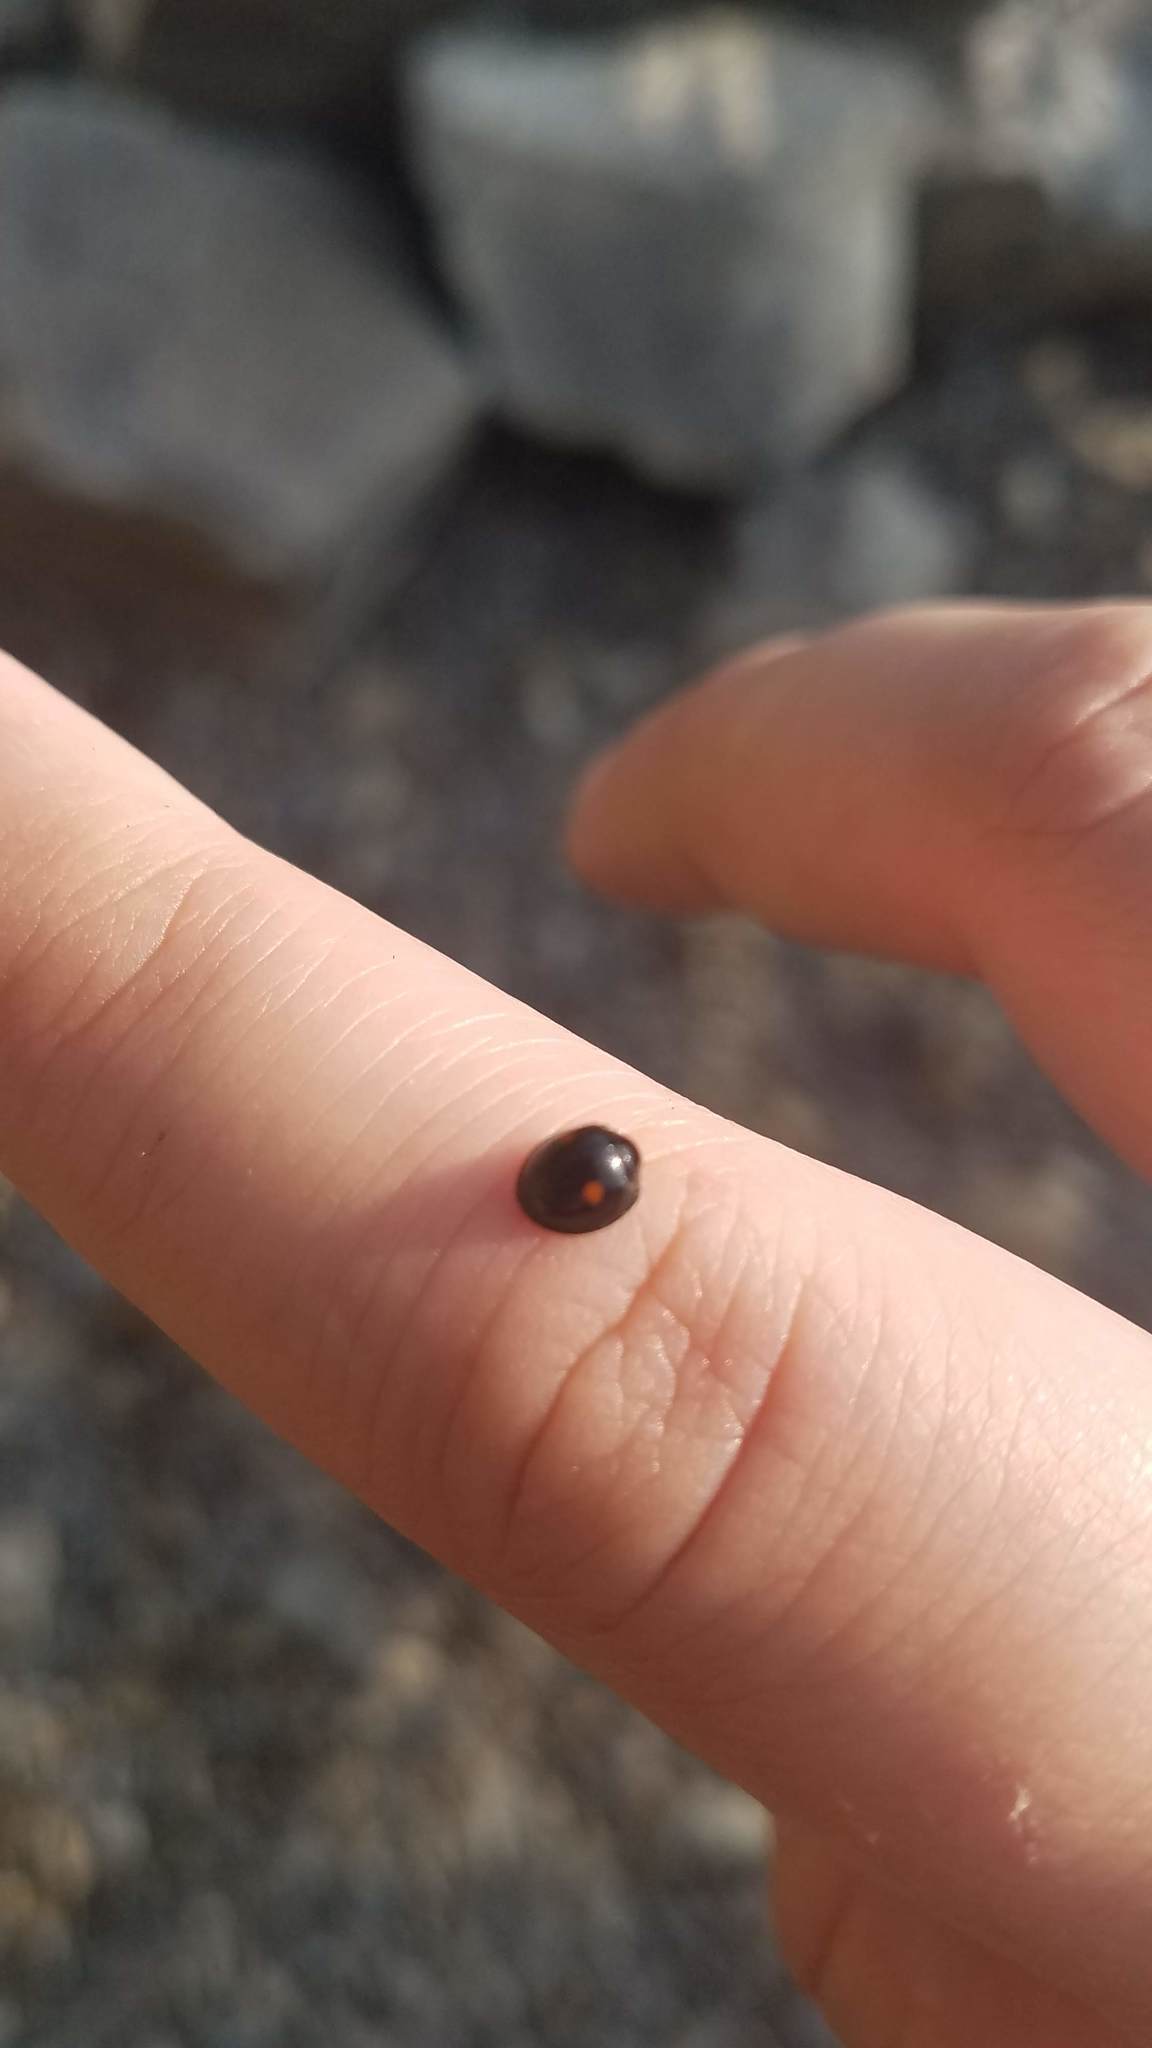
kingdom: Animalia
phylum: Arthropoda
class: Insecta
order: Coleoptera
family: Coccinellidae
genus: Chilocorus
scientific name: Chilocorus stigma
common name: Twicestabbed lady beetle
